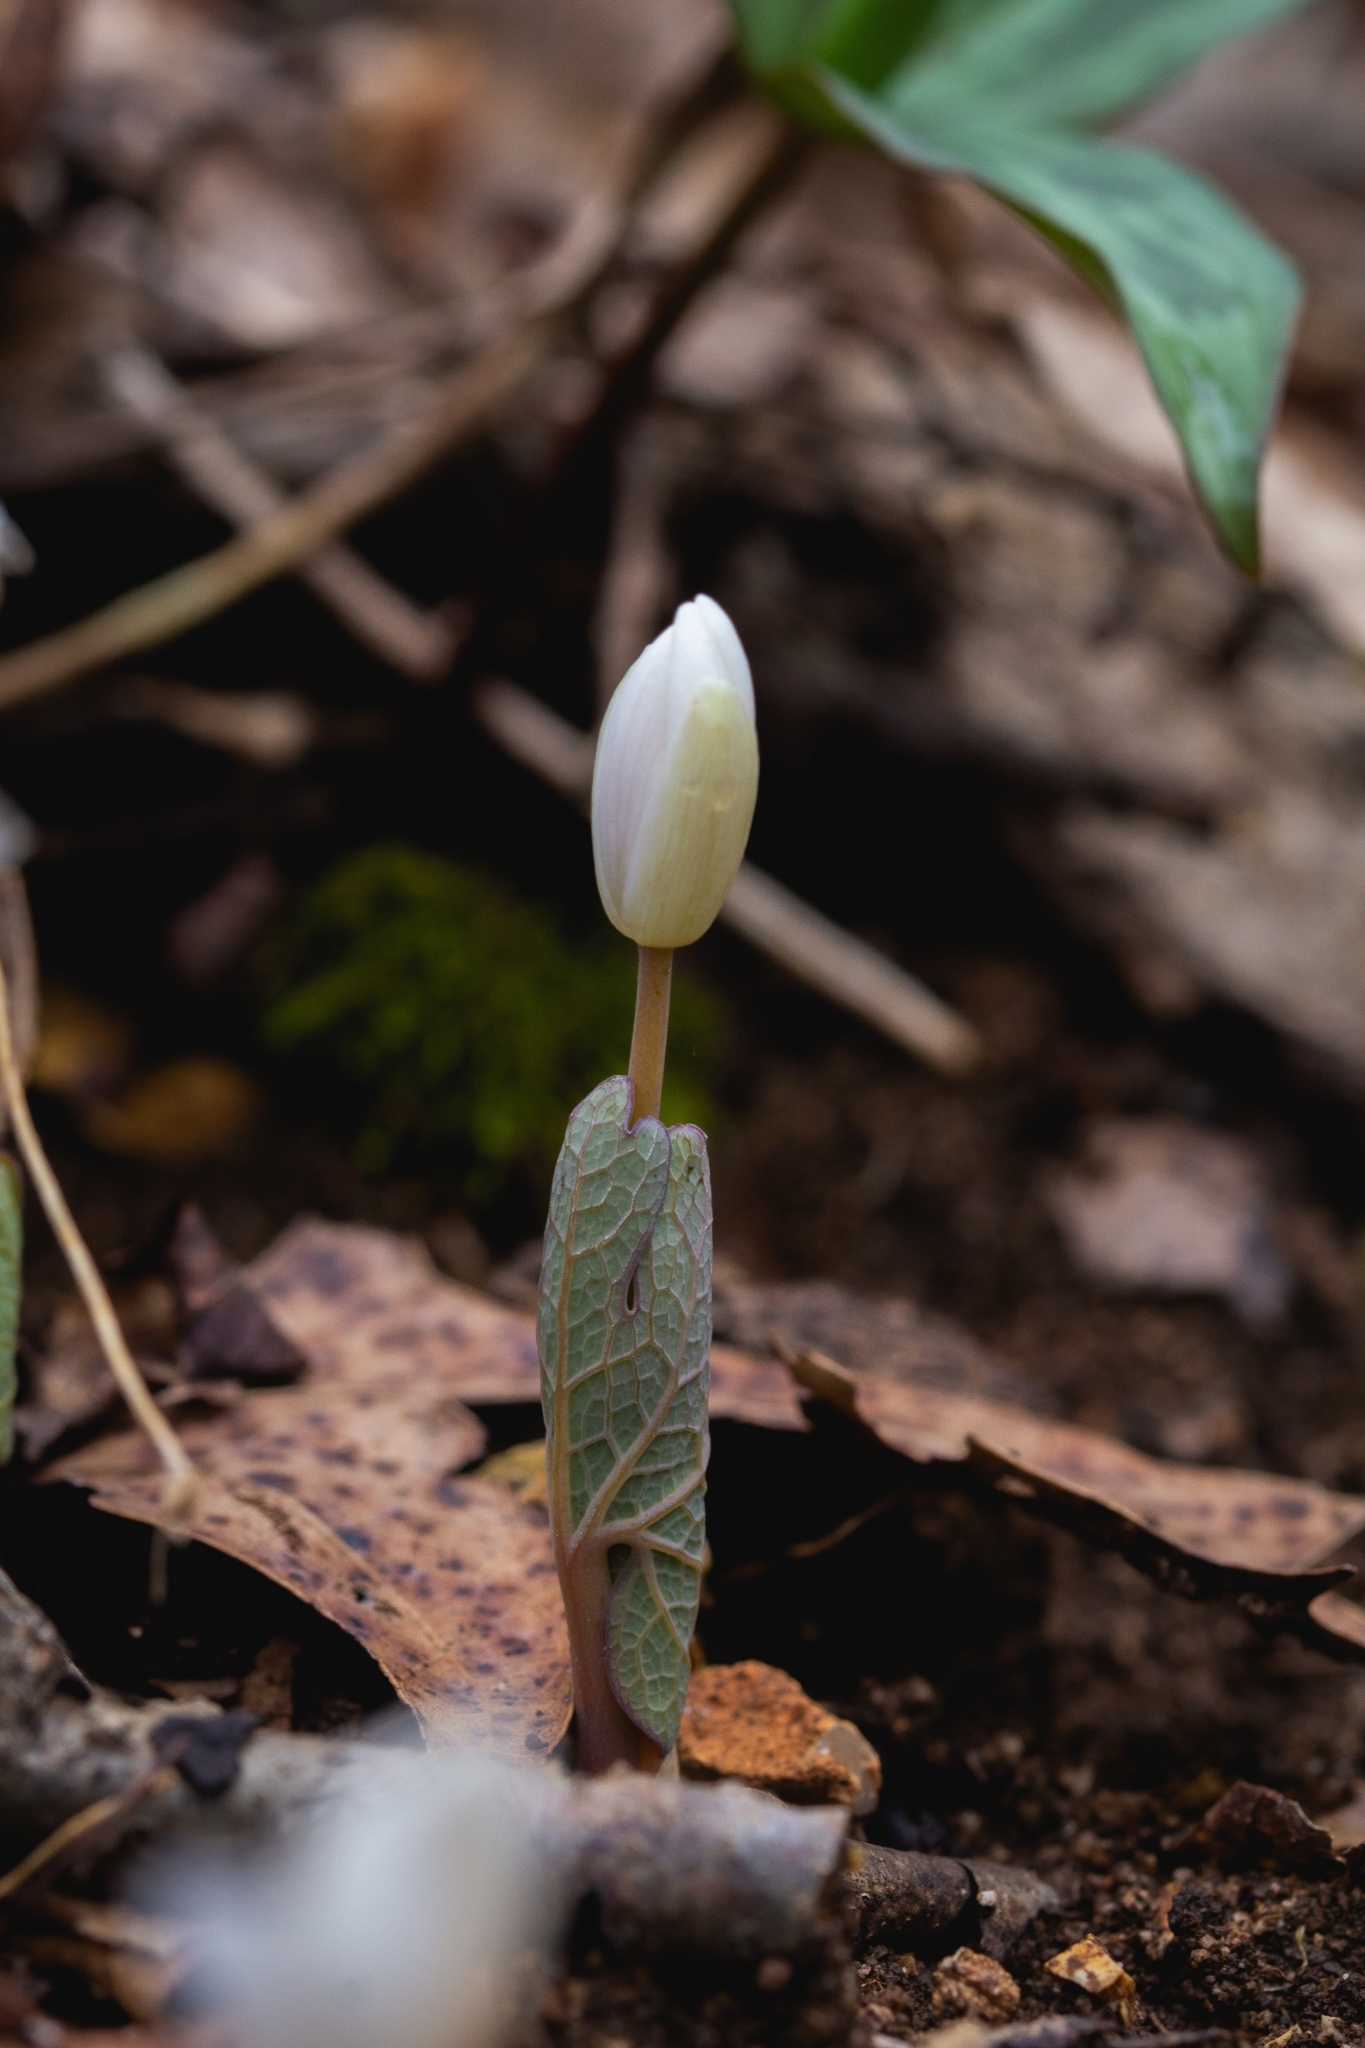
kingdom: Plantae
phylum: Tracheophyta
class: Magnoliopsida
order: Ranunculales
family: Papaveraceae
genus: Sanguinaria
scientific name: Sanguinaria canadensis
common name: Bloodroot
